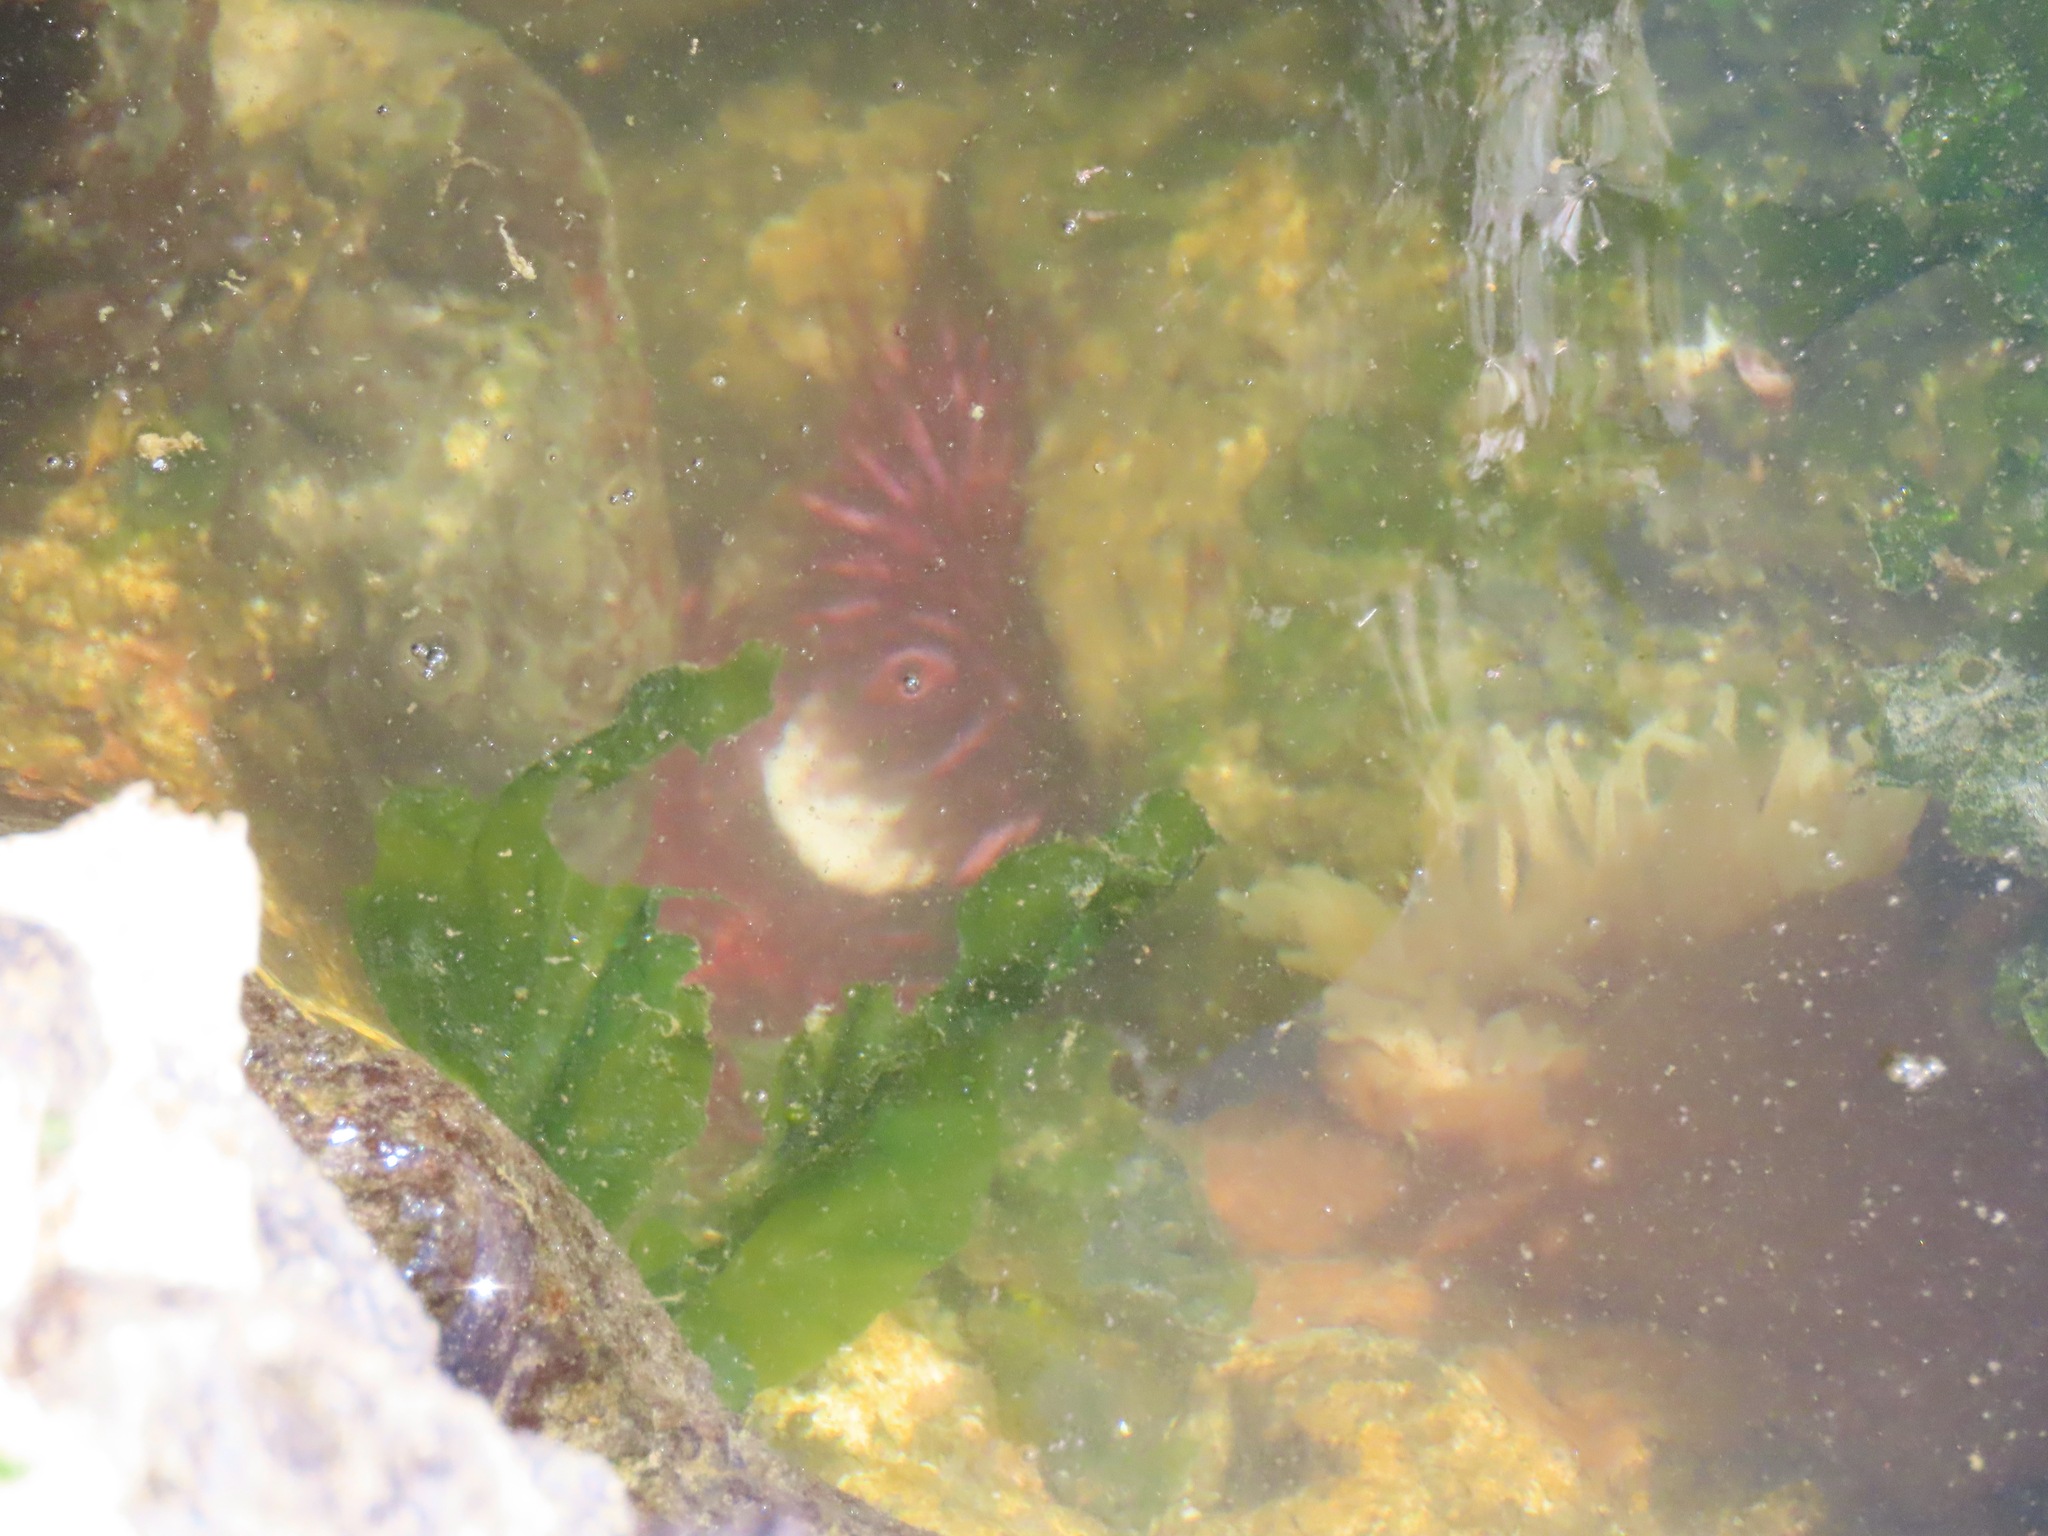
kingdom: Animalia
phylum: Echinodermata
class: Echinoidea
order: Camarodonta
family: Strongylocentrotidae
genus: Strongylocentrotus
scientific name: Strongylocentrotus purpuratus
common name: Purple sea urchin
